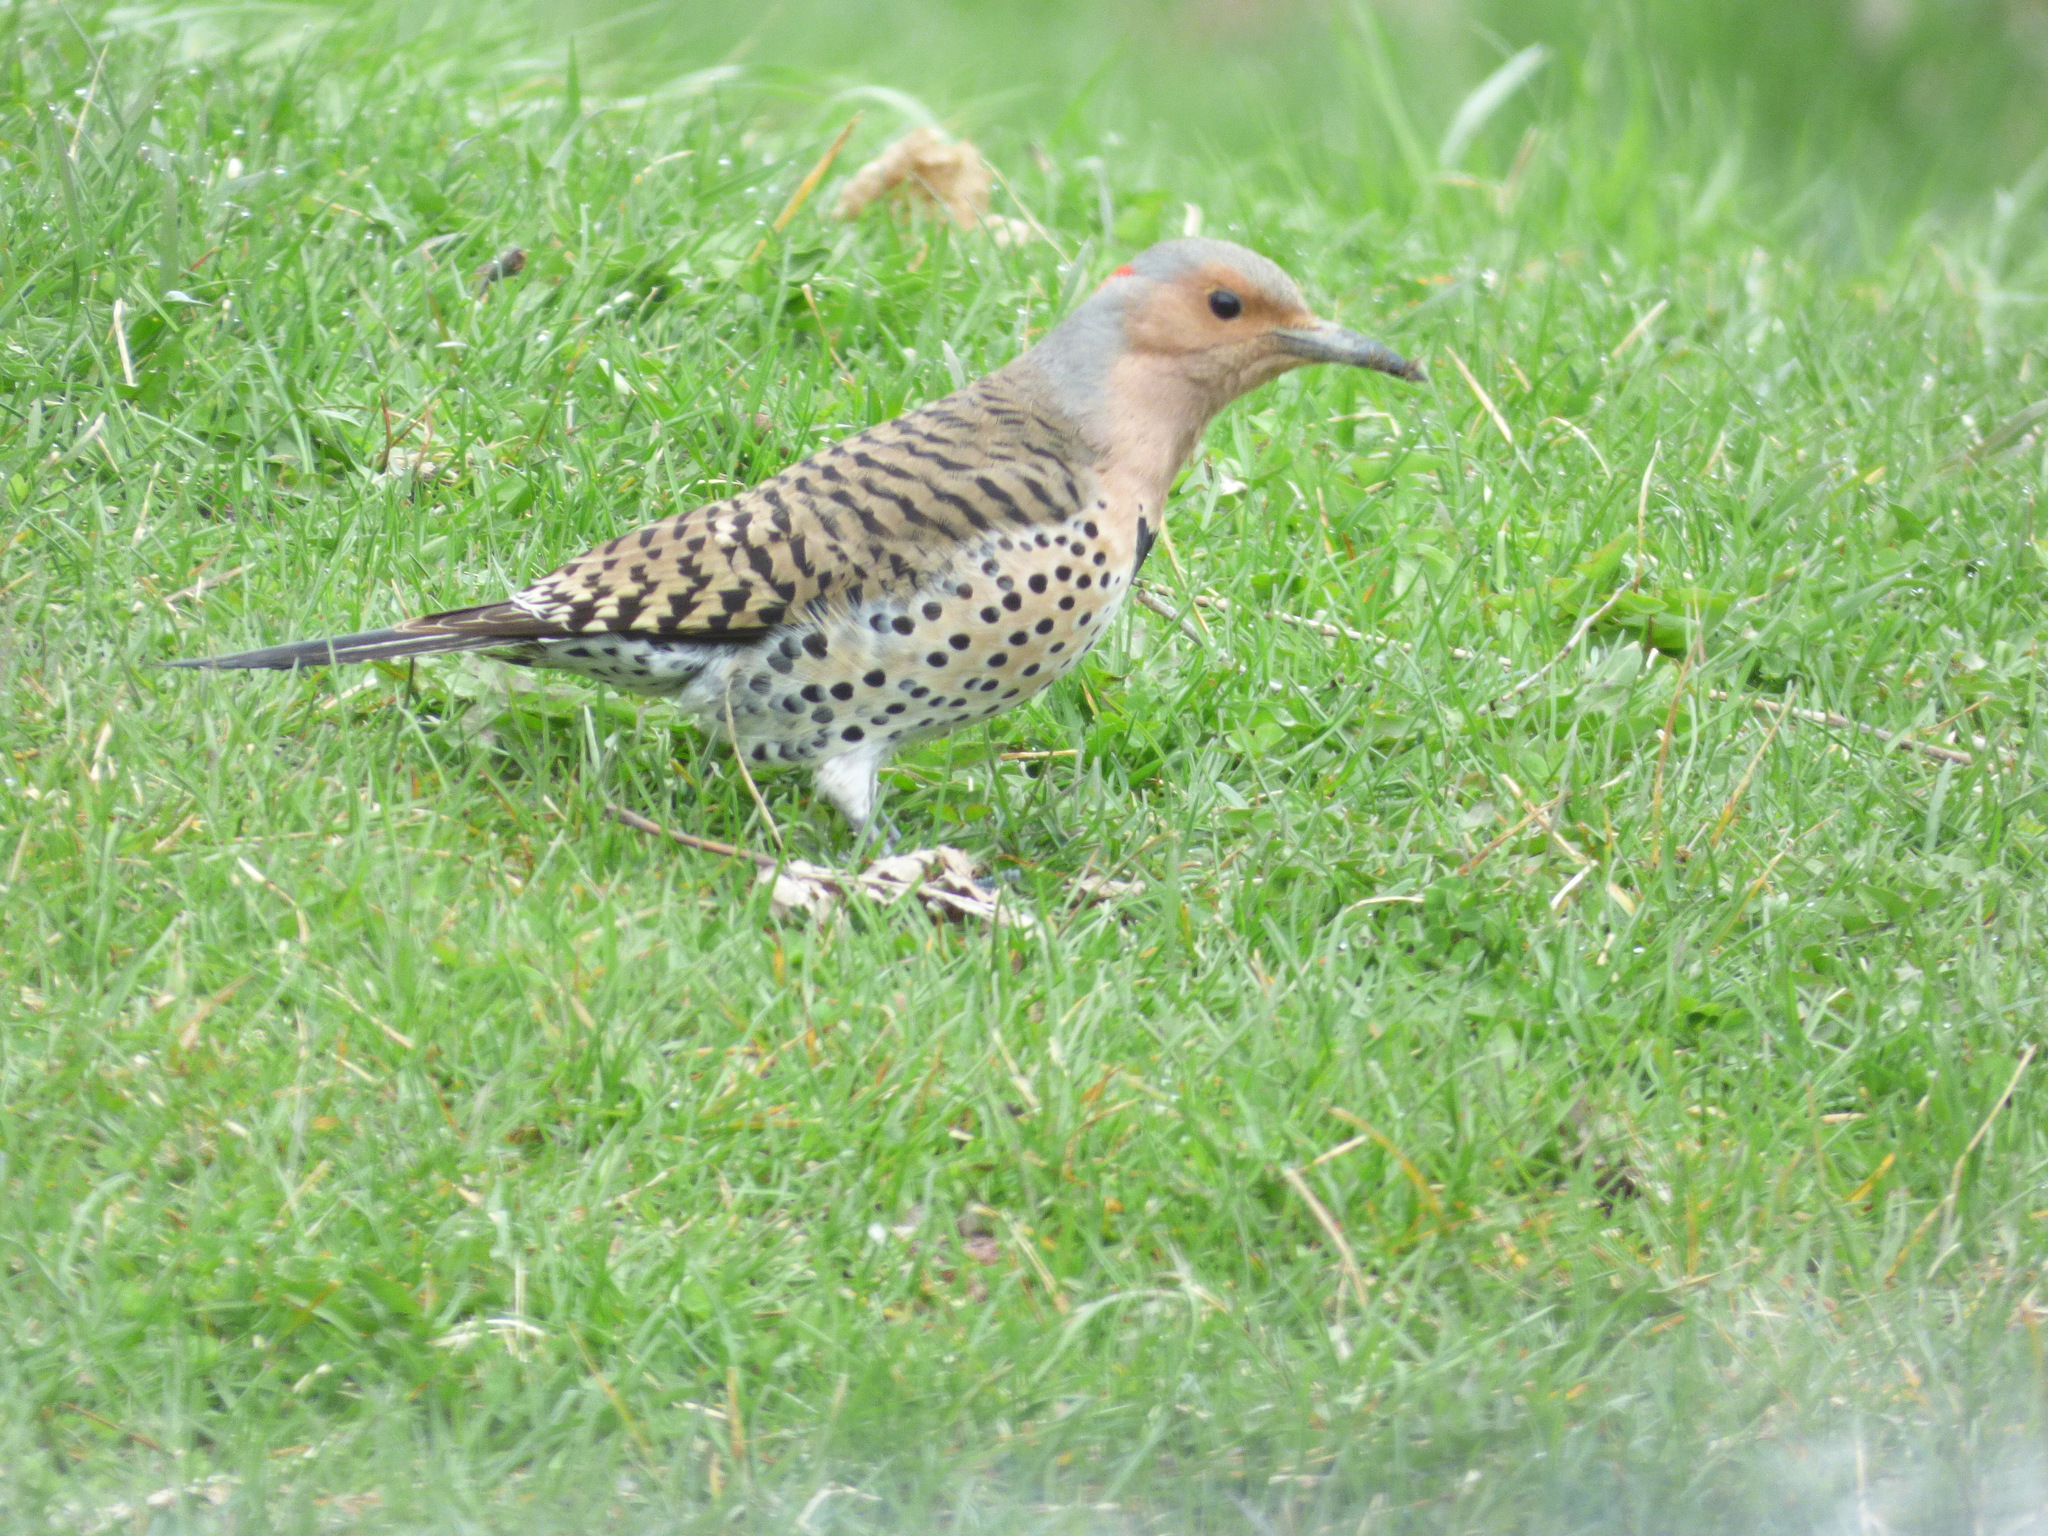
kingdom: Animalia
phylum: Chordata
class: Aves
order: Piciformes
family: Picidae
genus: Colaptes
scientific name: Colaptes auratus
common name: Northern flicker
